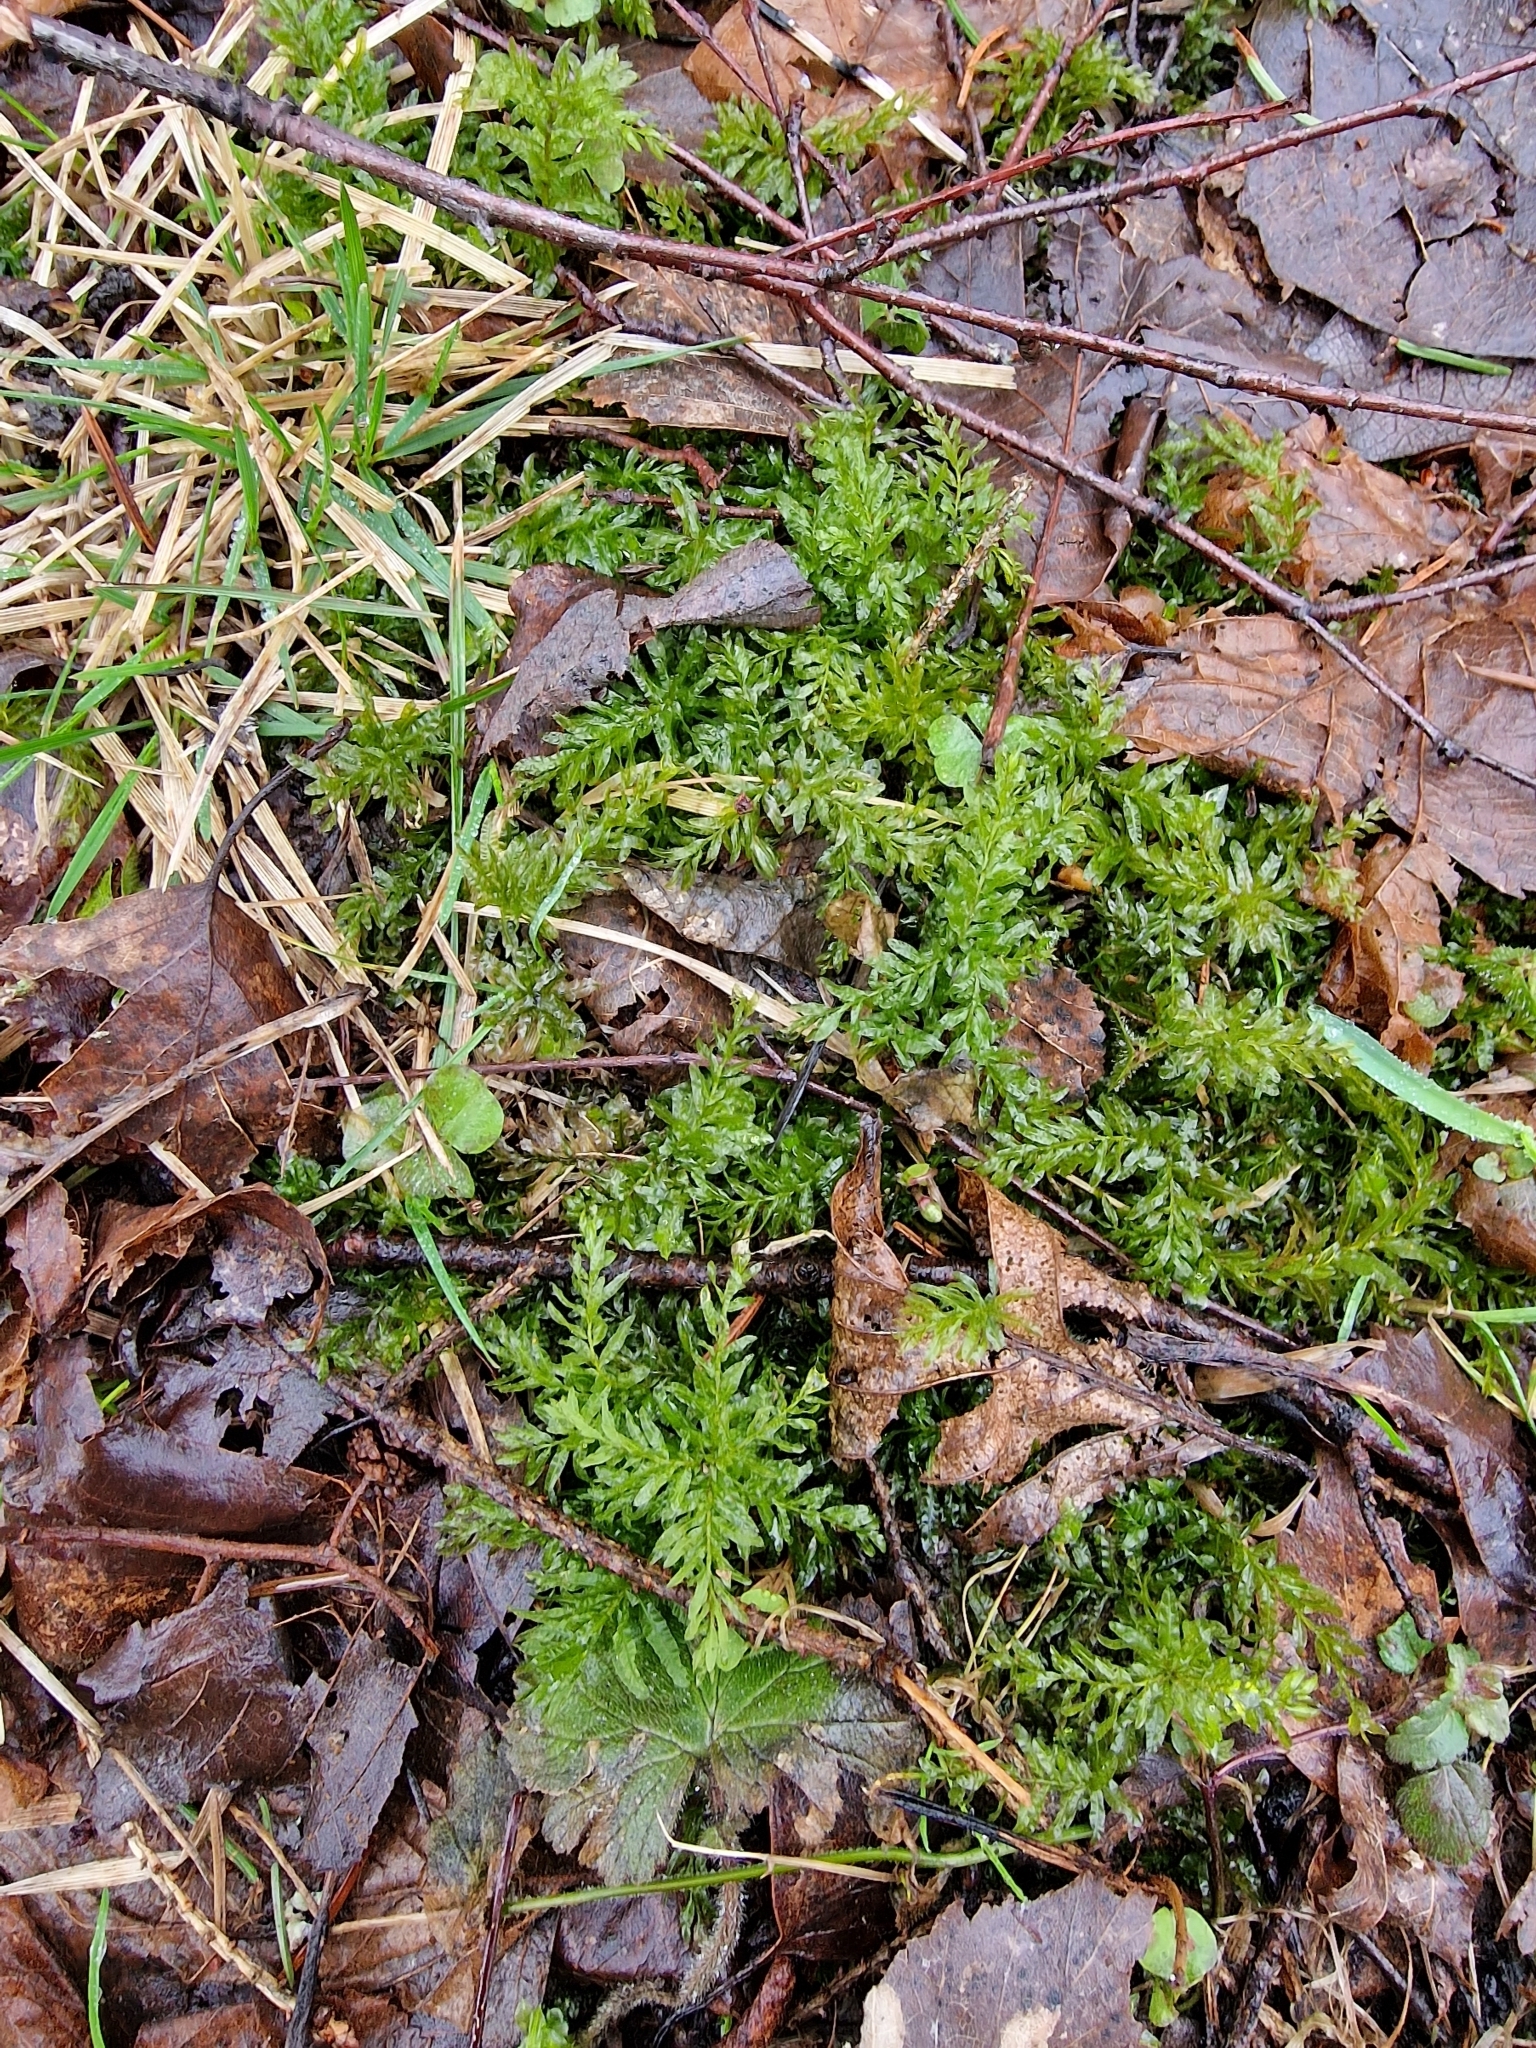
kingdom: Plantae
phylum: Bryophyta
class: Bryopsida
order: Bryales
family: Mniaceae
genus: Plagiomnium
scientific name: Plagiomnium undulatum
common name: Hart's-tongue thyme-moss
